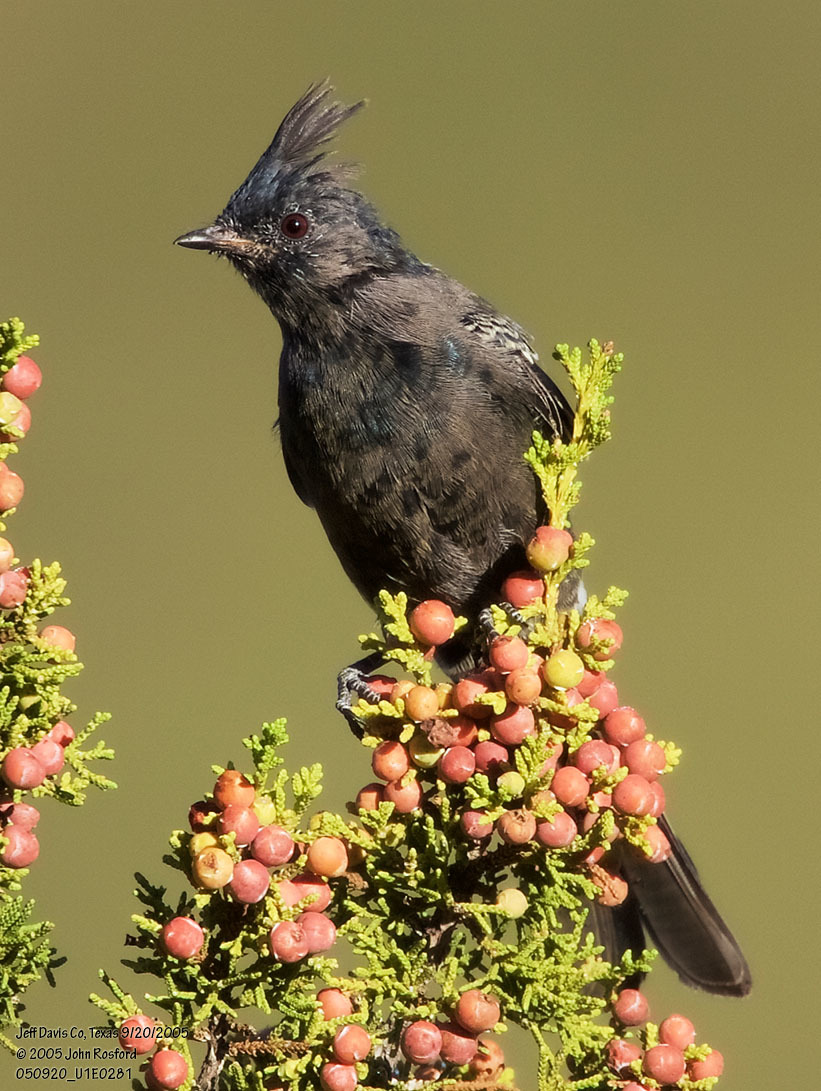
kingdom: Animalia
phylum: Chordata
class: Aves
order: Passeriformes
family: Ptilogonatidae
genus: Phainopepla
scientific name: Phainopepla nitens
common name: Phainopepla
